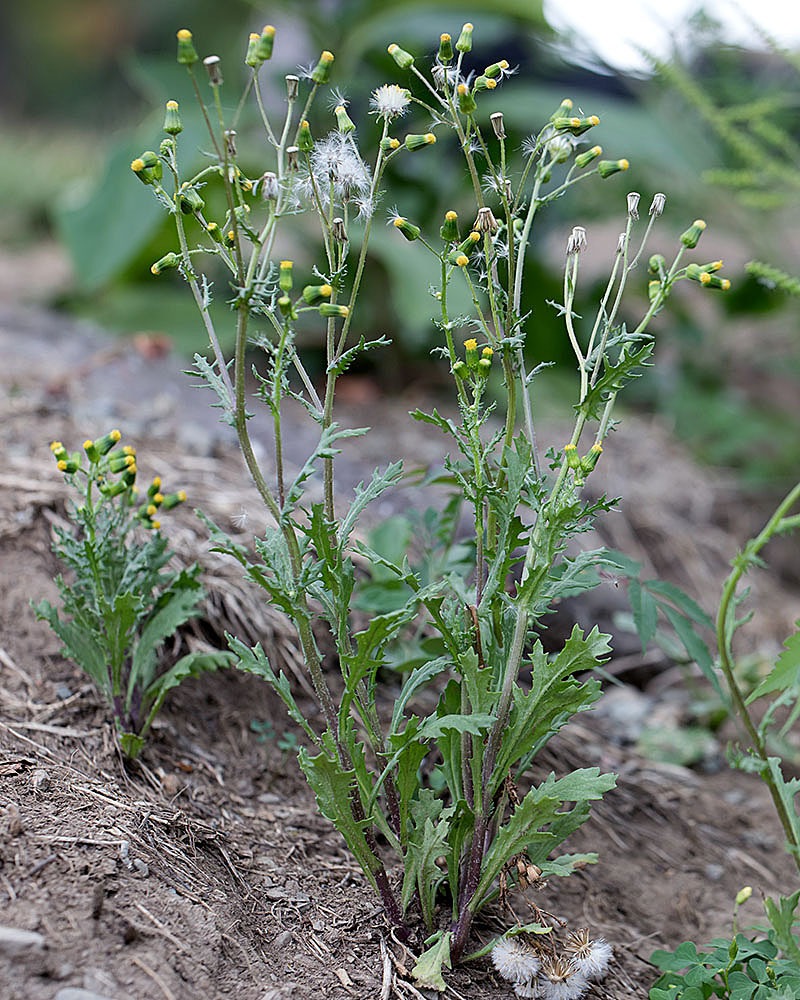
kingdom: Plantae
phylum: Tracheophyta
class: Magnoliopsida
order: Asterales
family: Asteraceae
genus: Senecio
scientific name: Senecio vulgaris
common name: Old-man-in-the-spring
